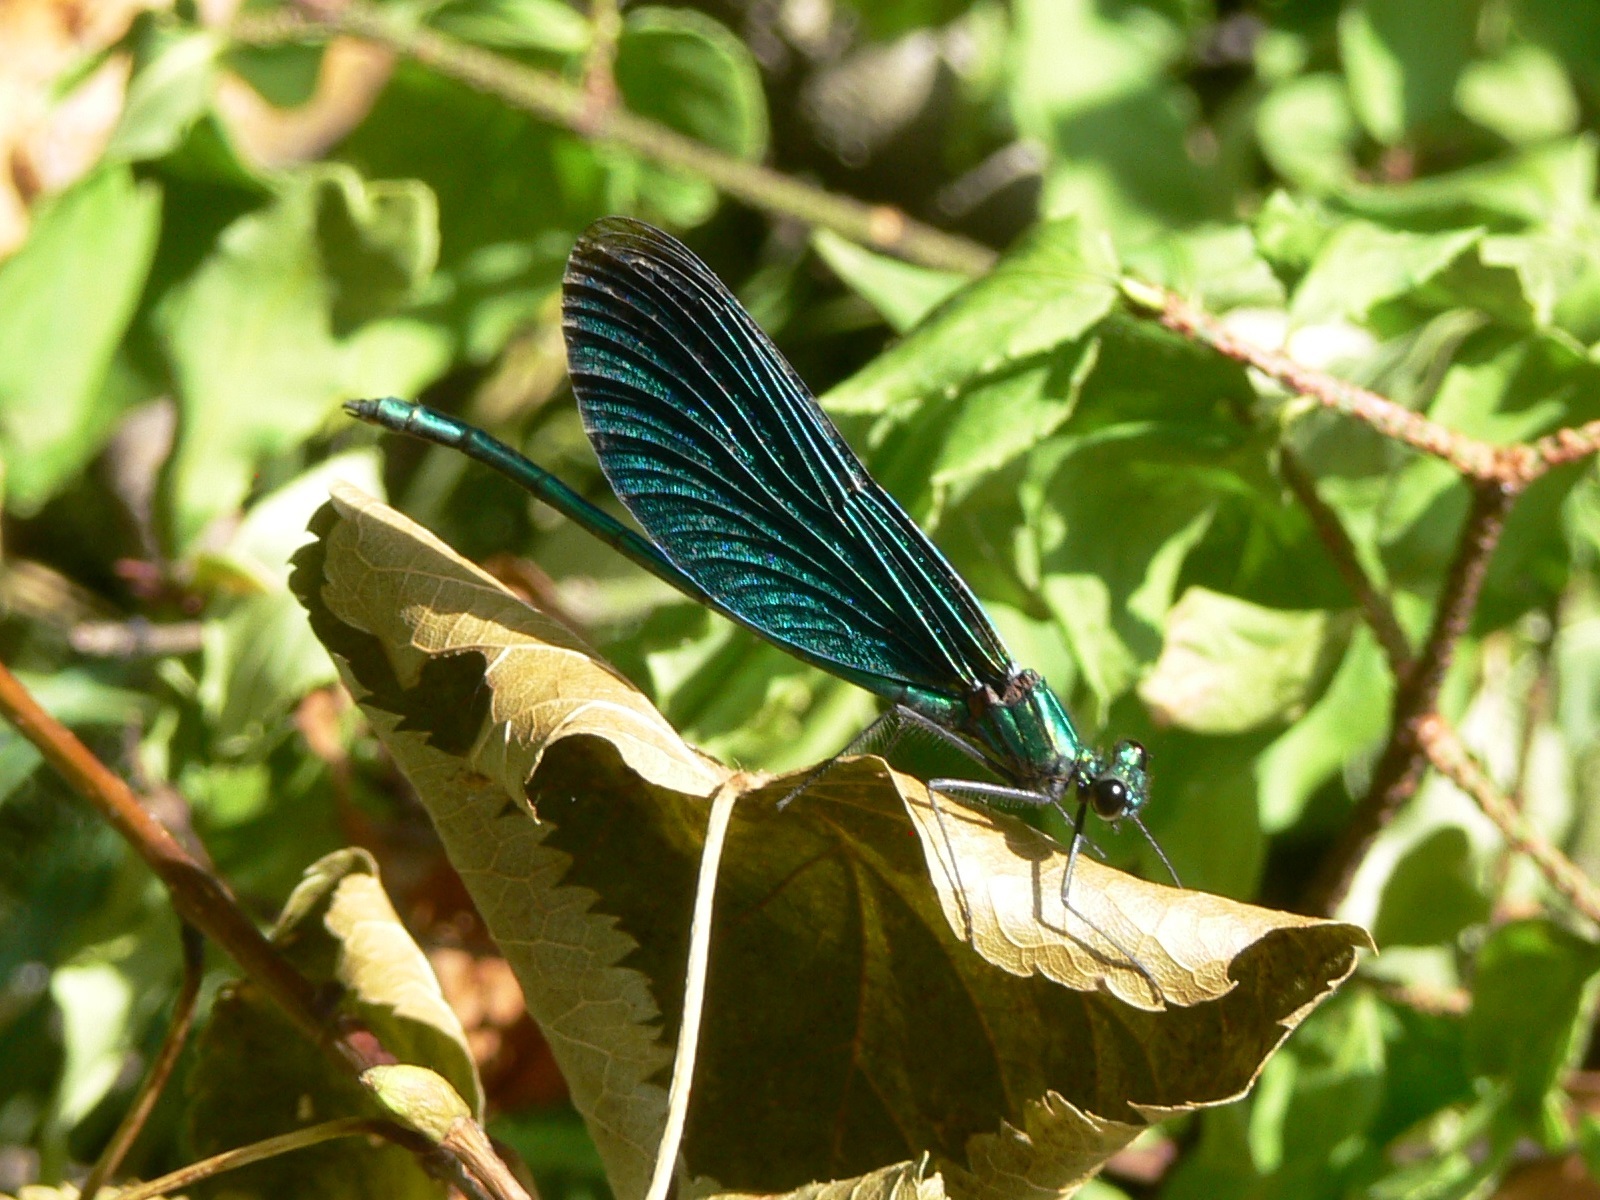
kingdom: Animalia
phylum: Arthropoda
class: Insecta
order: Odonata
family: Calopterygidae
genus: Calopteryx
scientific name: Calopteryx virgo
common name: Beautiful demoiselle
